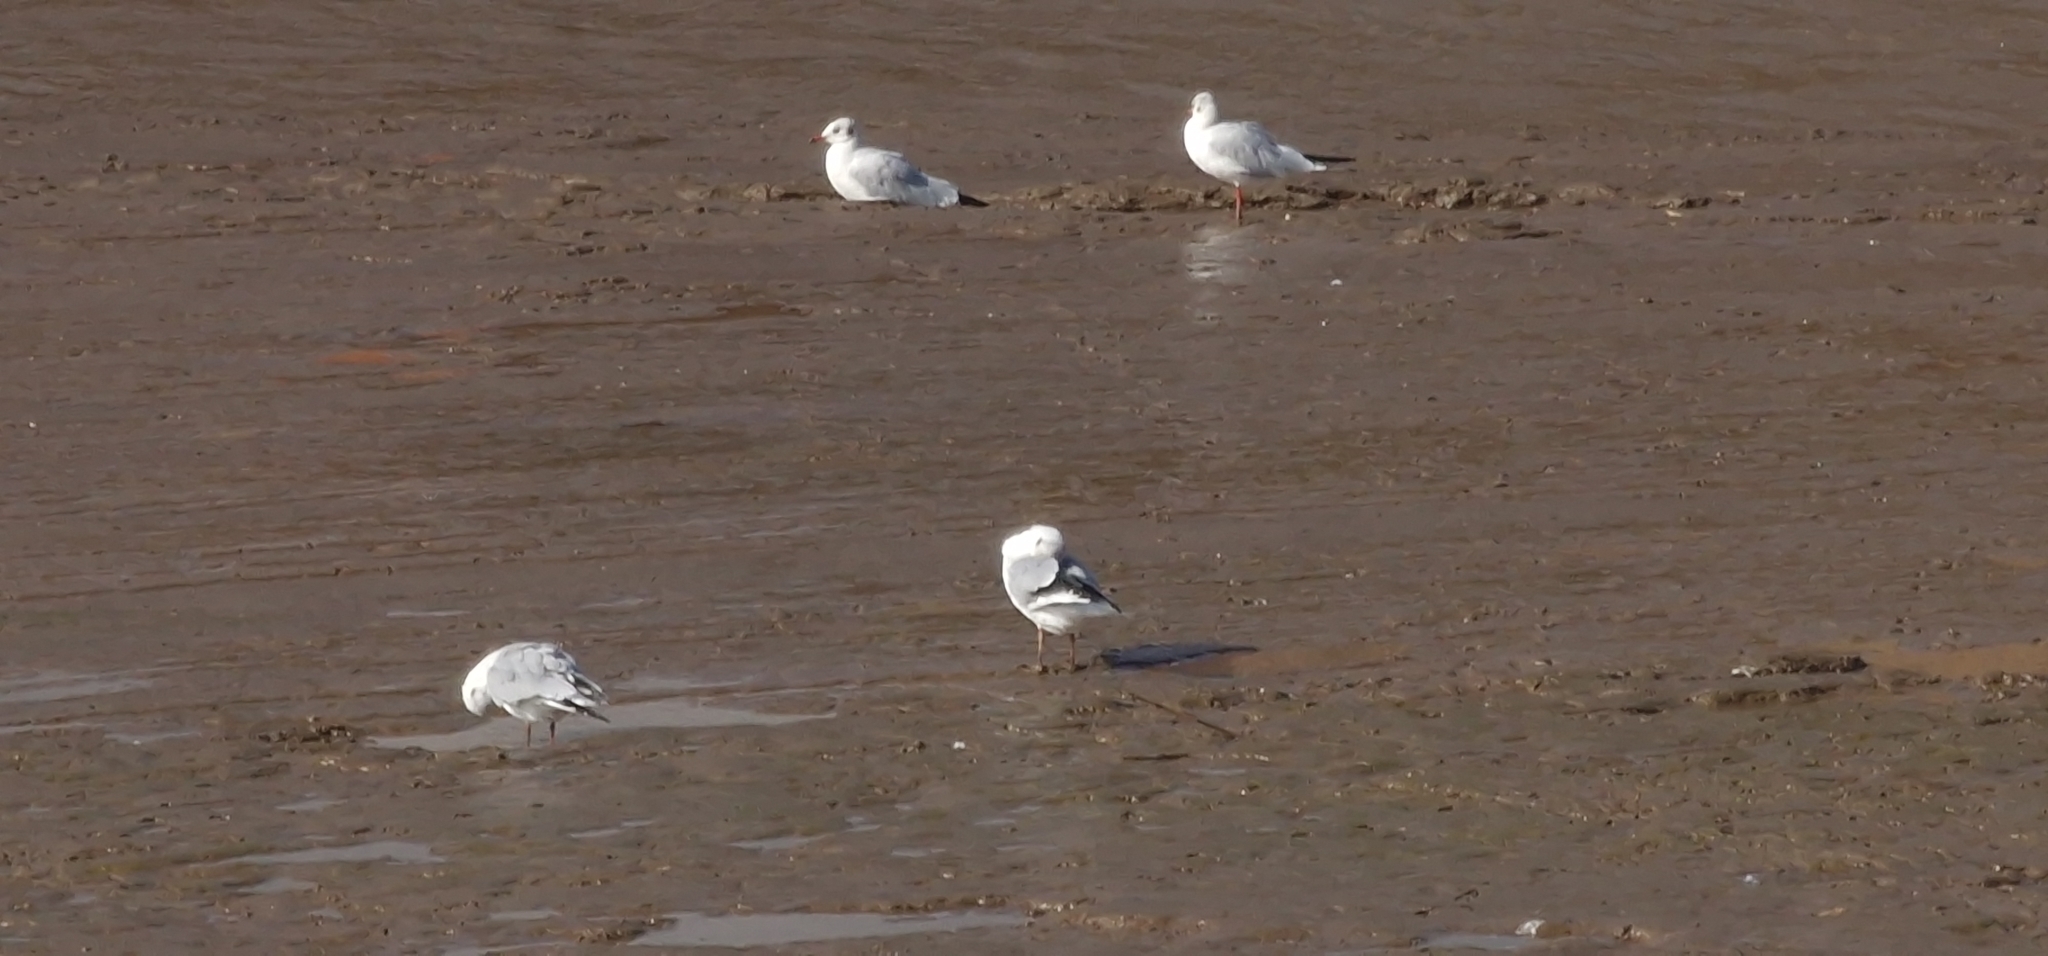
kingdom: Animalia
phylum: Chordata
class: Aves
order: Charadriiformes
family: Laridae
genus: Chroicocephalus
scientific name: Chroicocephalus ridibundus
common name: Black-headed gull
